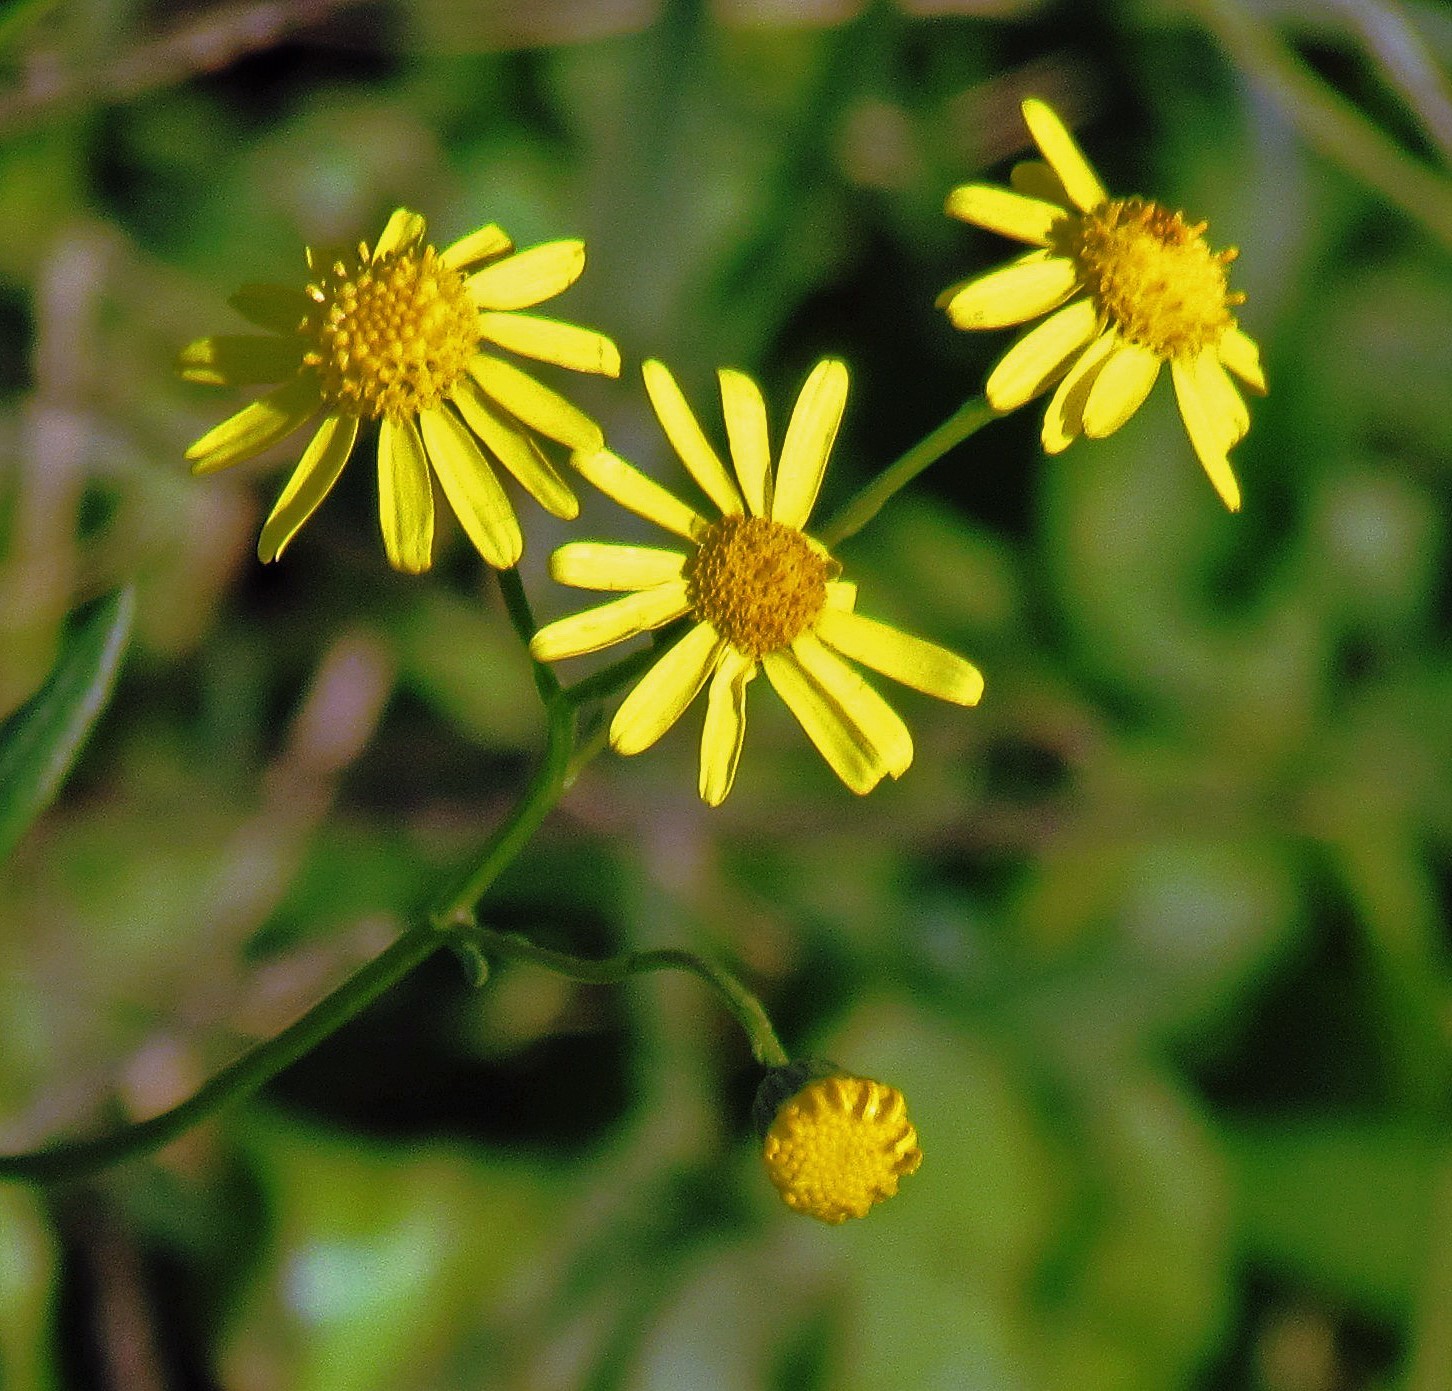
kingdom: Plantae
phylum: Tracheophyta
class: Magnoliopsida
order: Asterales
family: Asteraceae
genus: Senecio
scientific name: Senecio madagascariensis
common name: Madagascar ragwort
